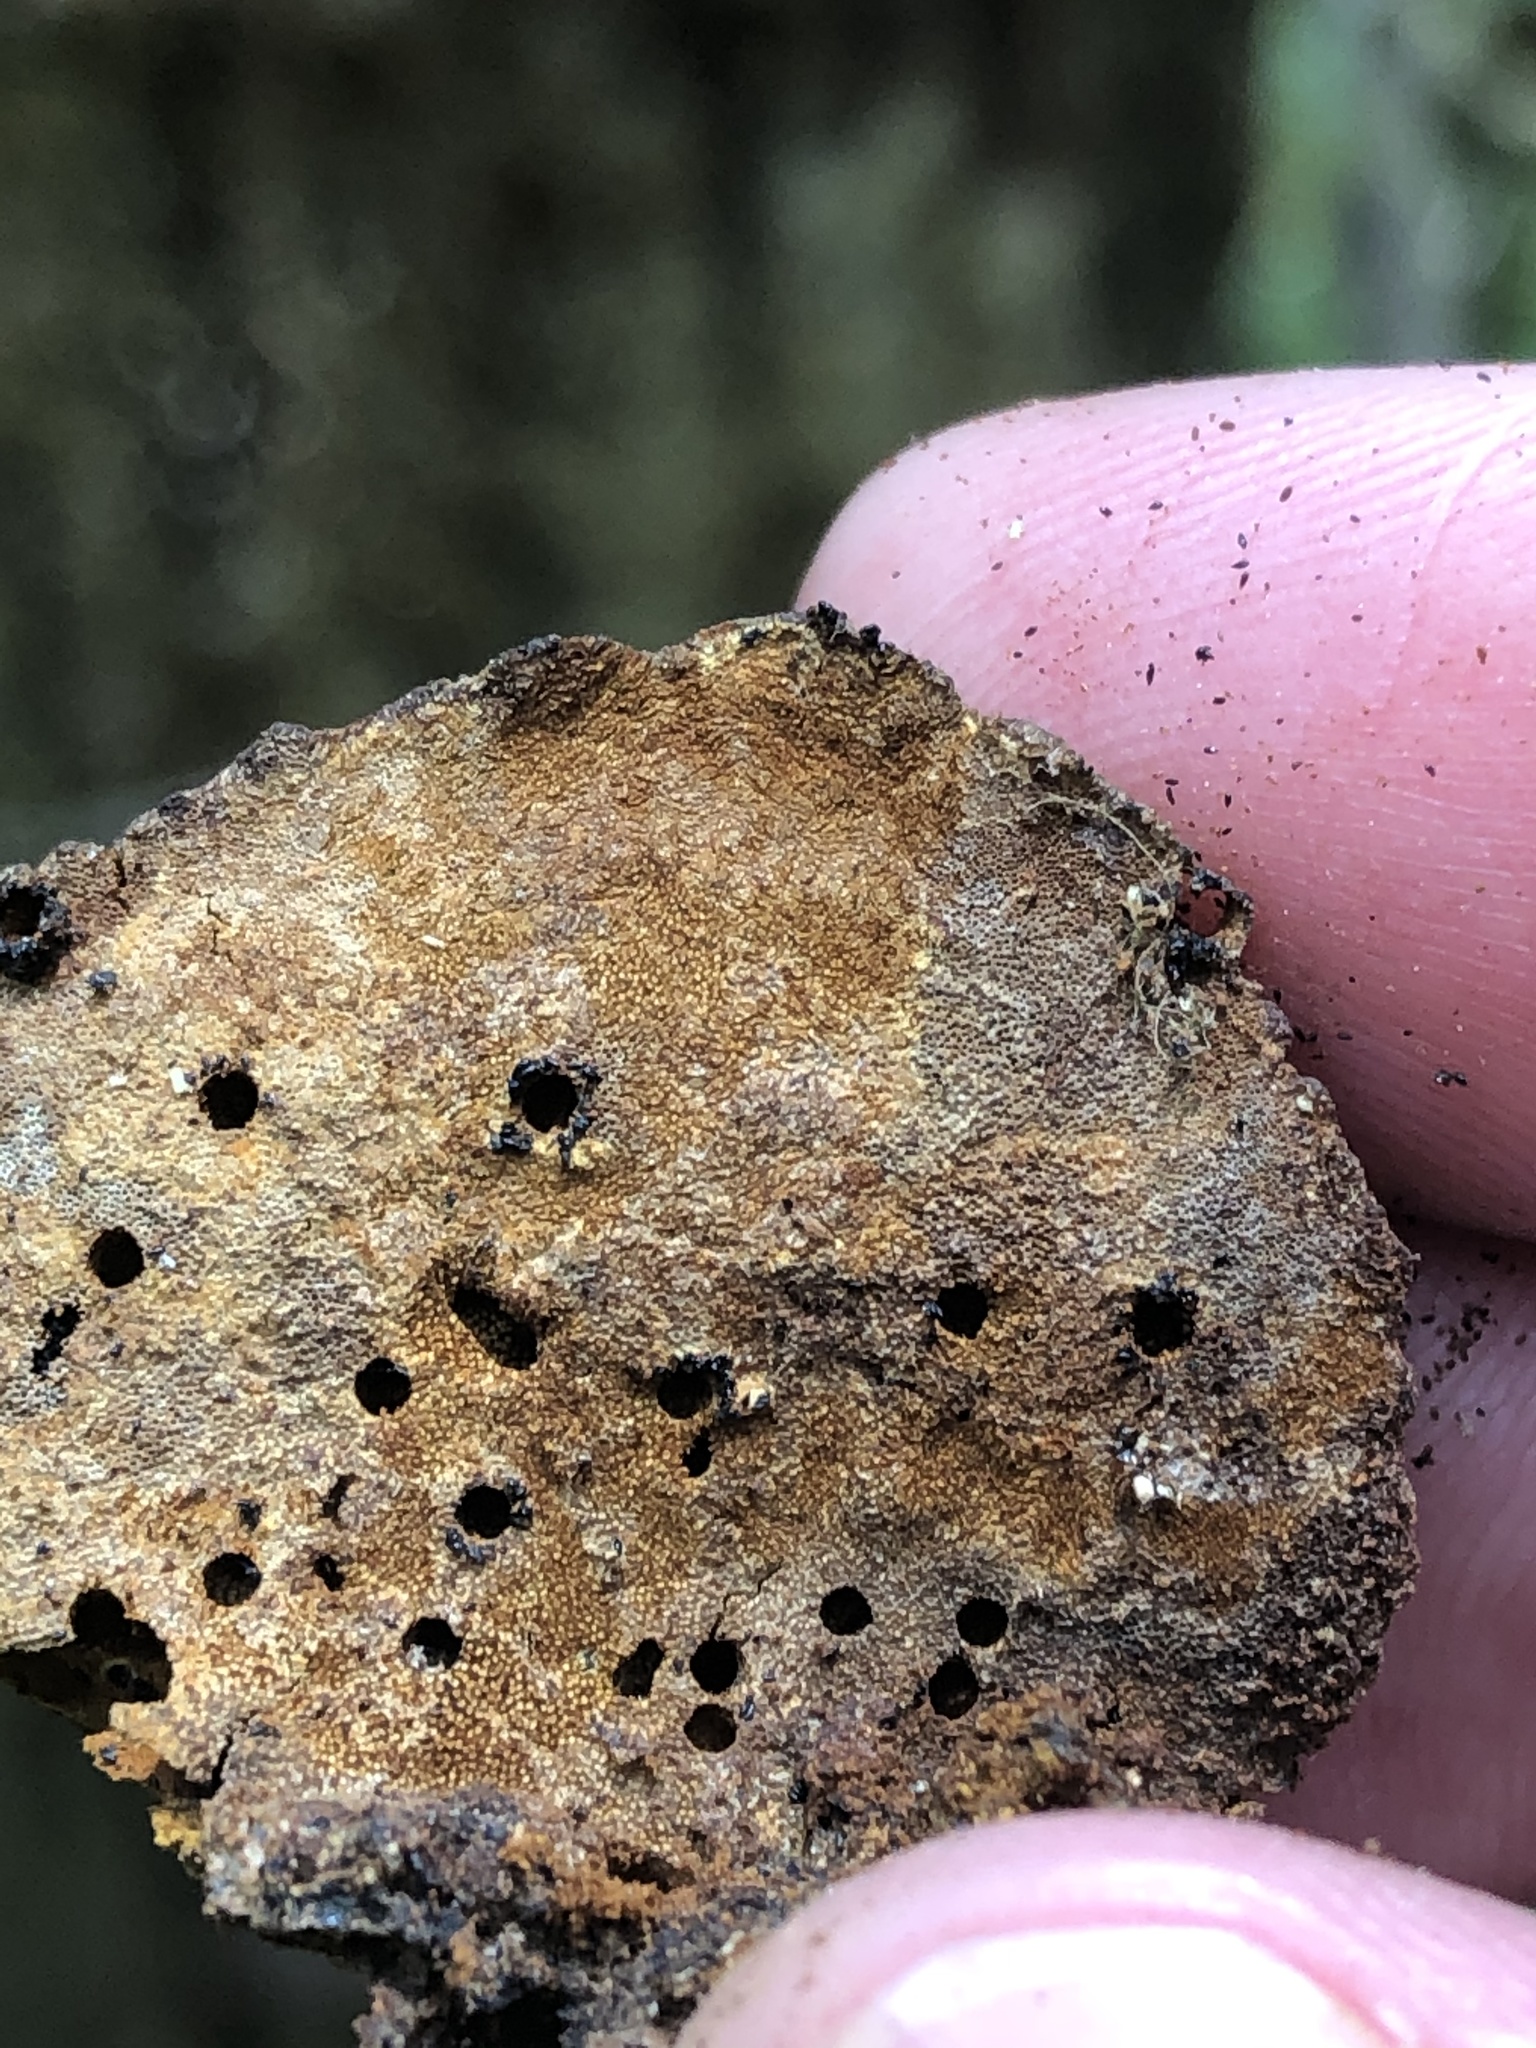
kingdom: Fungi
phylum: Basidiomycota
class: Agaricomycetes
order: Hymenochaetales
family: Hymenochaetaceae
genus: Phellinus
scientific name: Phellinus gilvus
